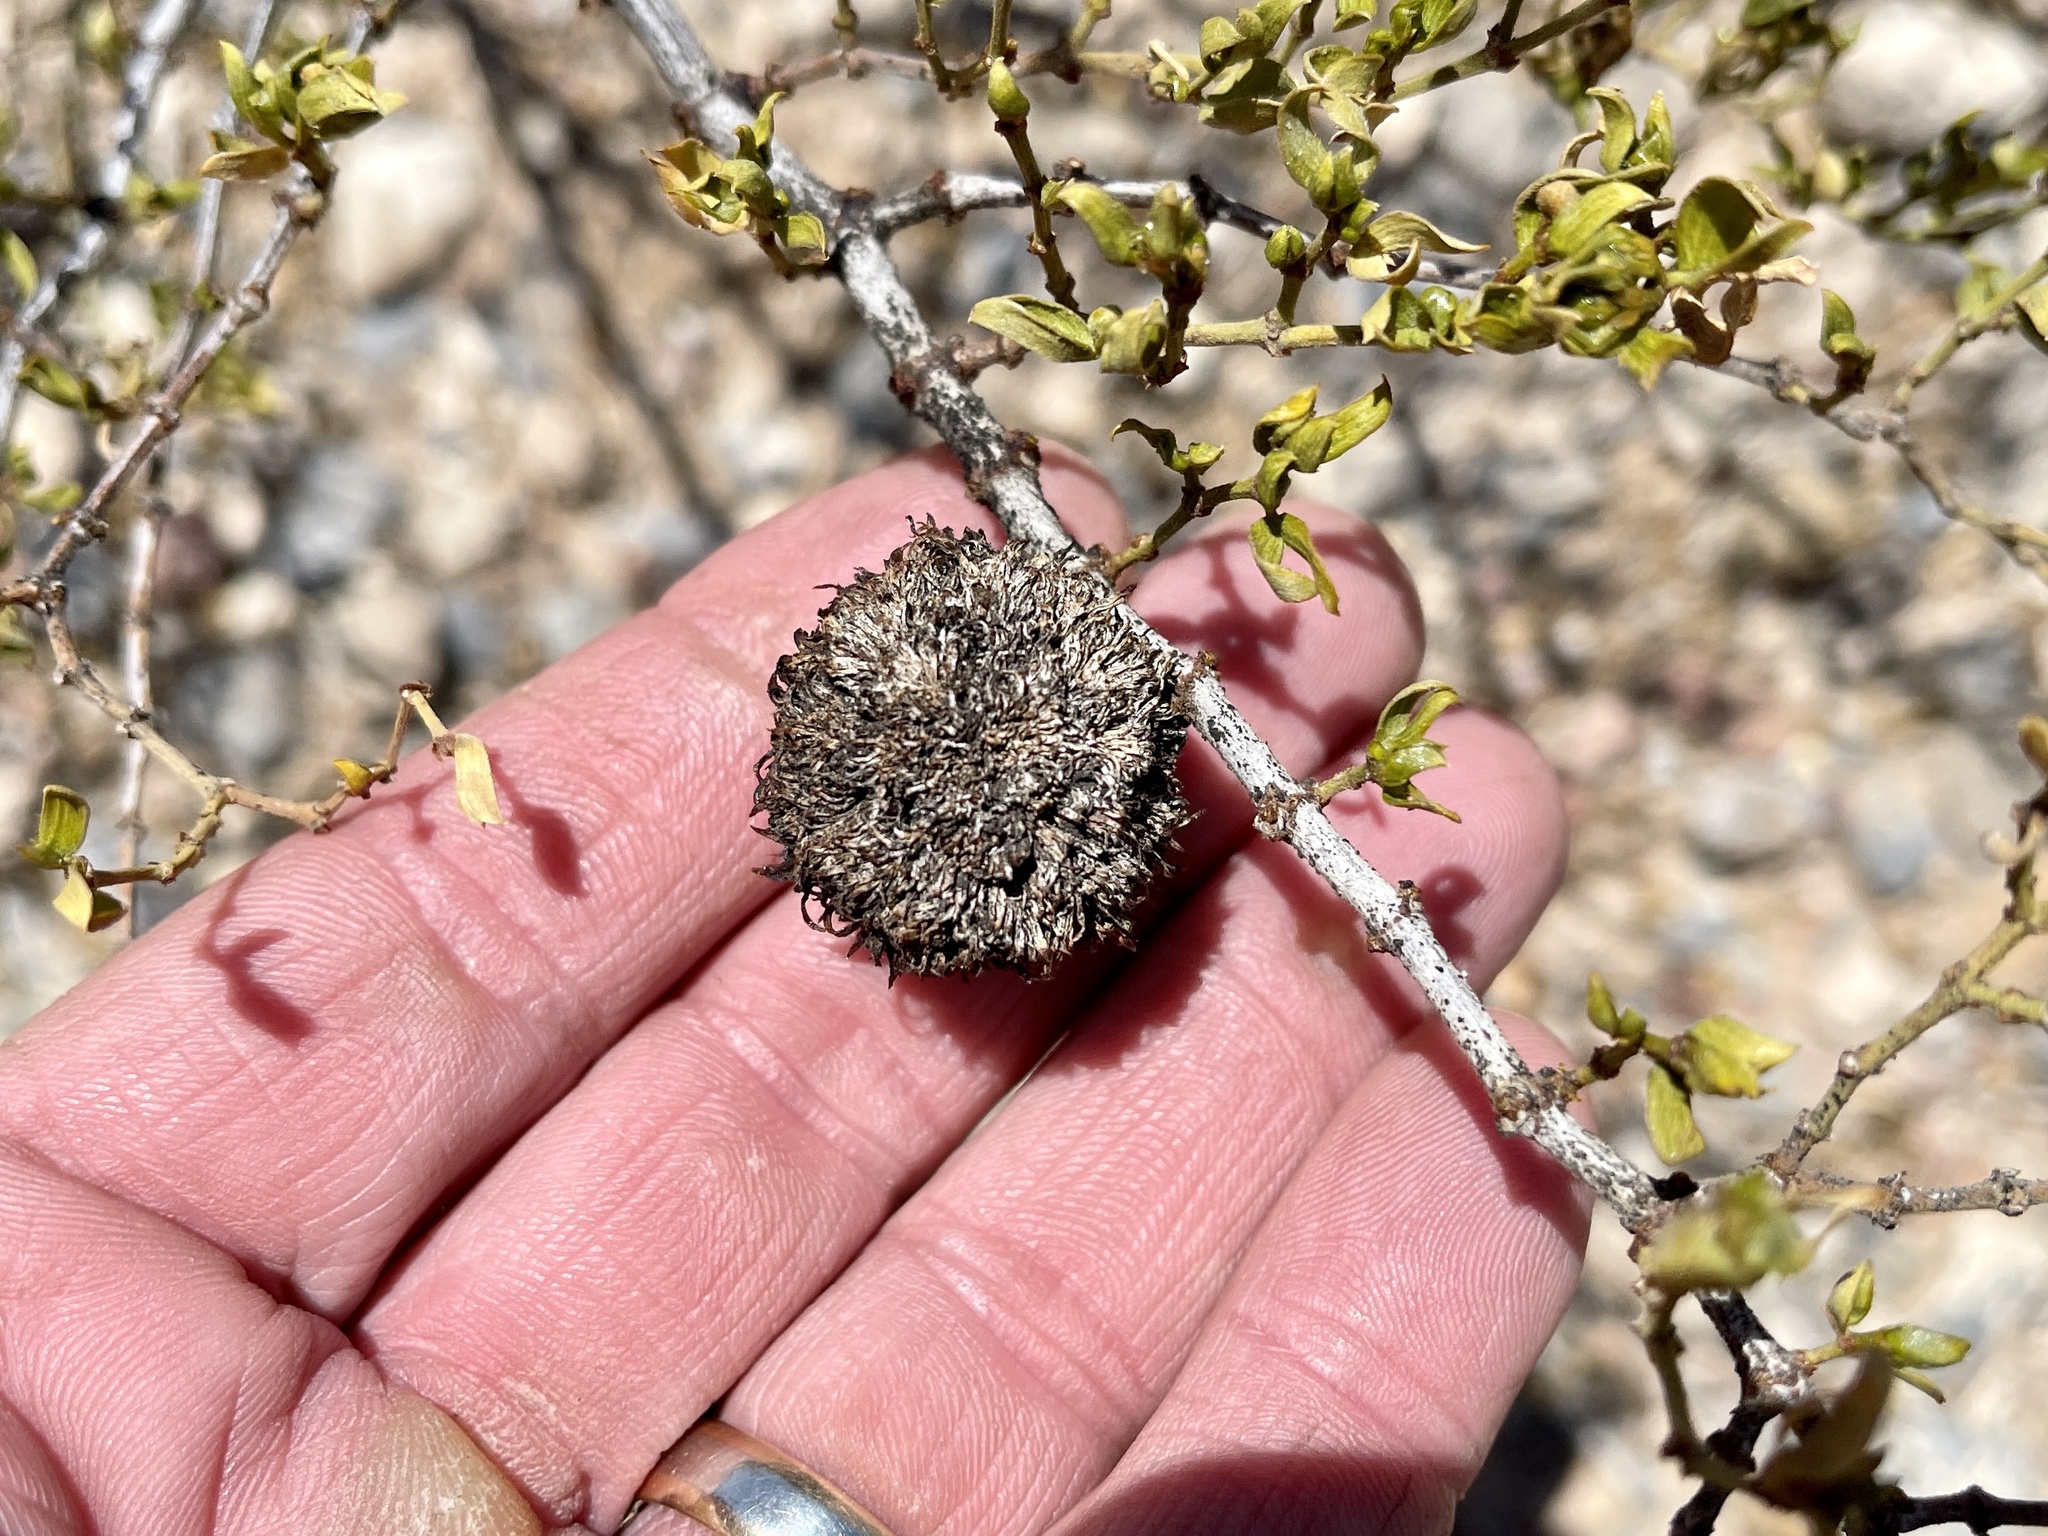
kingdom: Animalia
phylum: Arthropoda
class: Insecta
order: Diptera
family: Cecidomyiidae
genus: Asphondylia
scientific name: Asphondylia auripila
